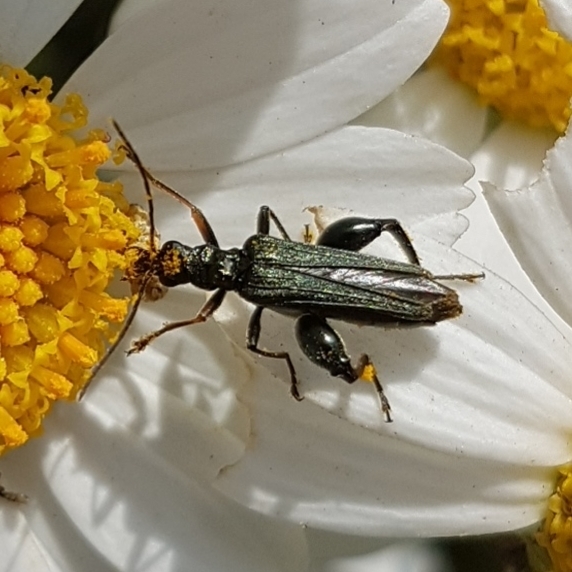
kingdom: Animalia
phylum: Arthropoda
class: Insecta
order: Coleoptera
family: Oedemeridae
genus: Oedemera
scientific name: Oedemera flavipes
